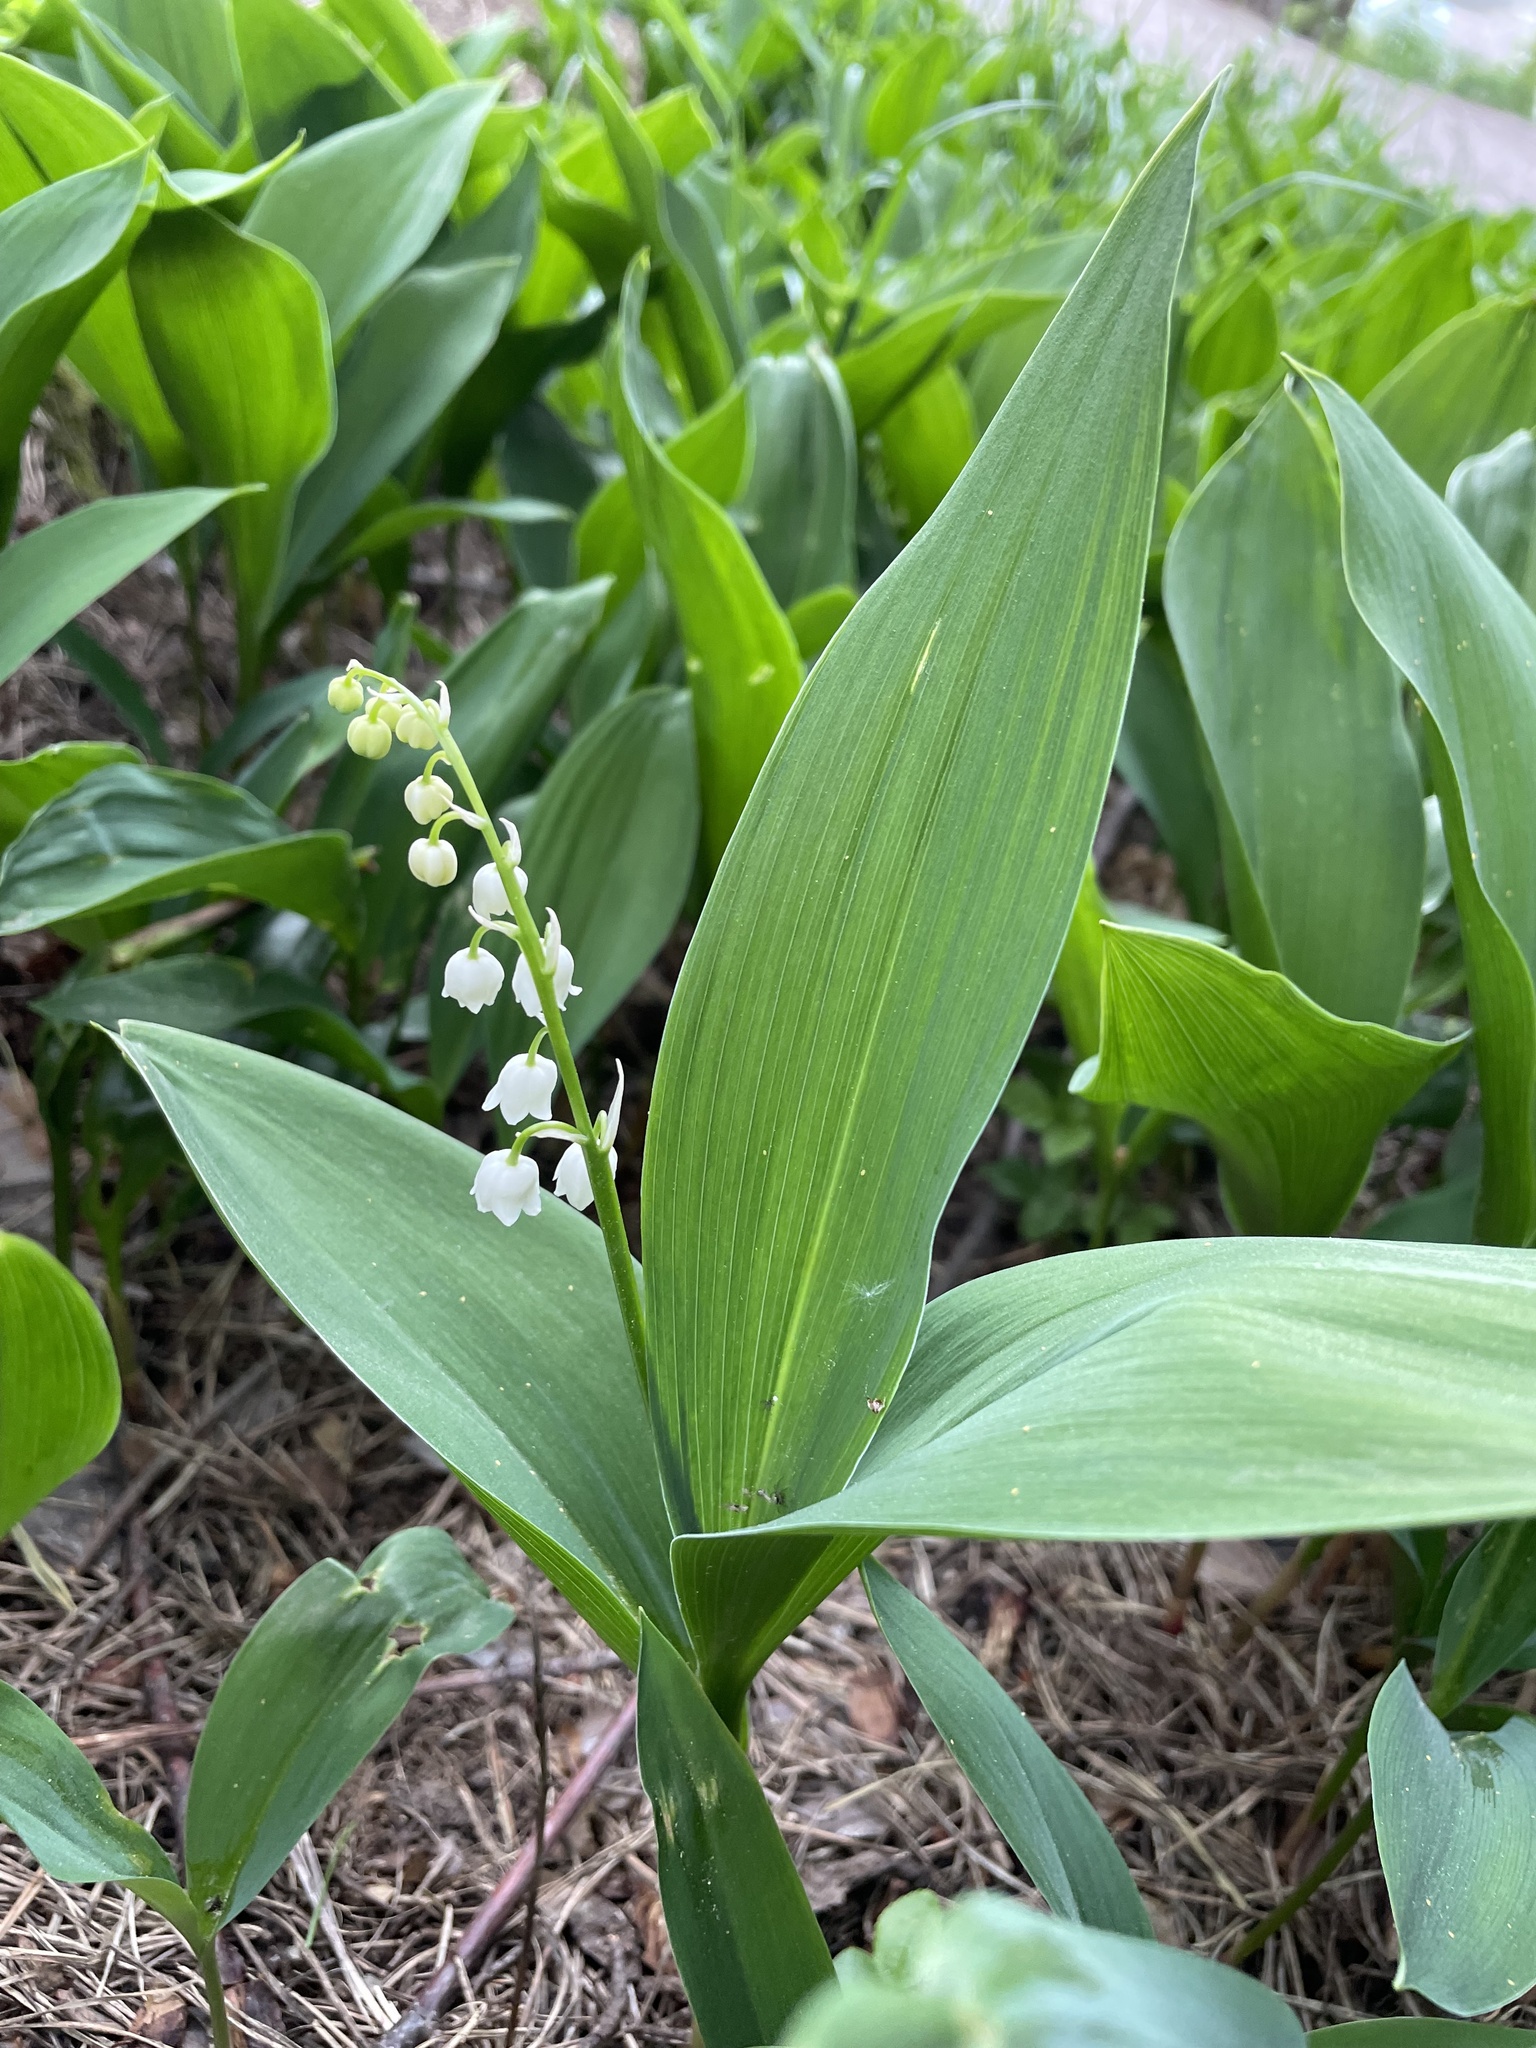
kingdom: Plantae
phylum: Tracheophyta
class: Liliopsida
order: Asparagales
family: Asparagaceae
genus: Convallaria
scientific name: Convallaria majalis
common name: Lily-of-the-valley
